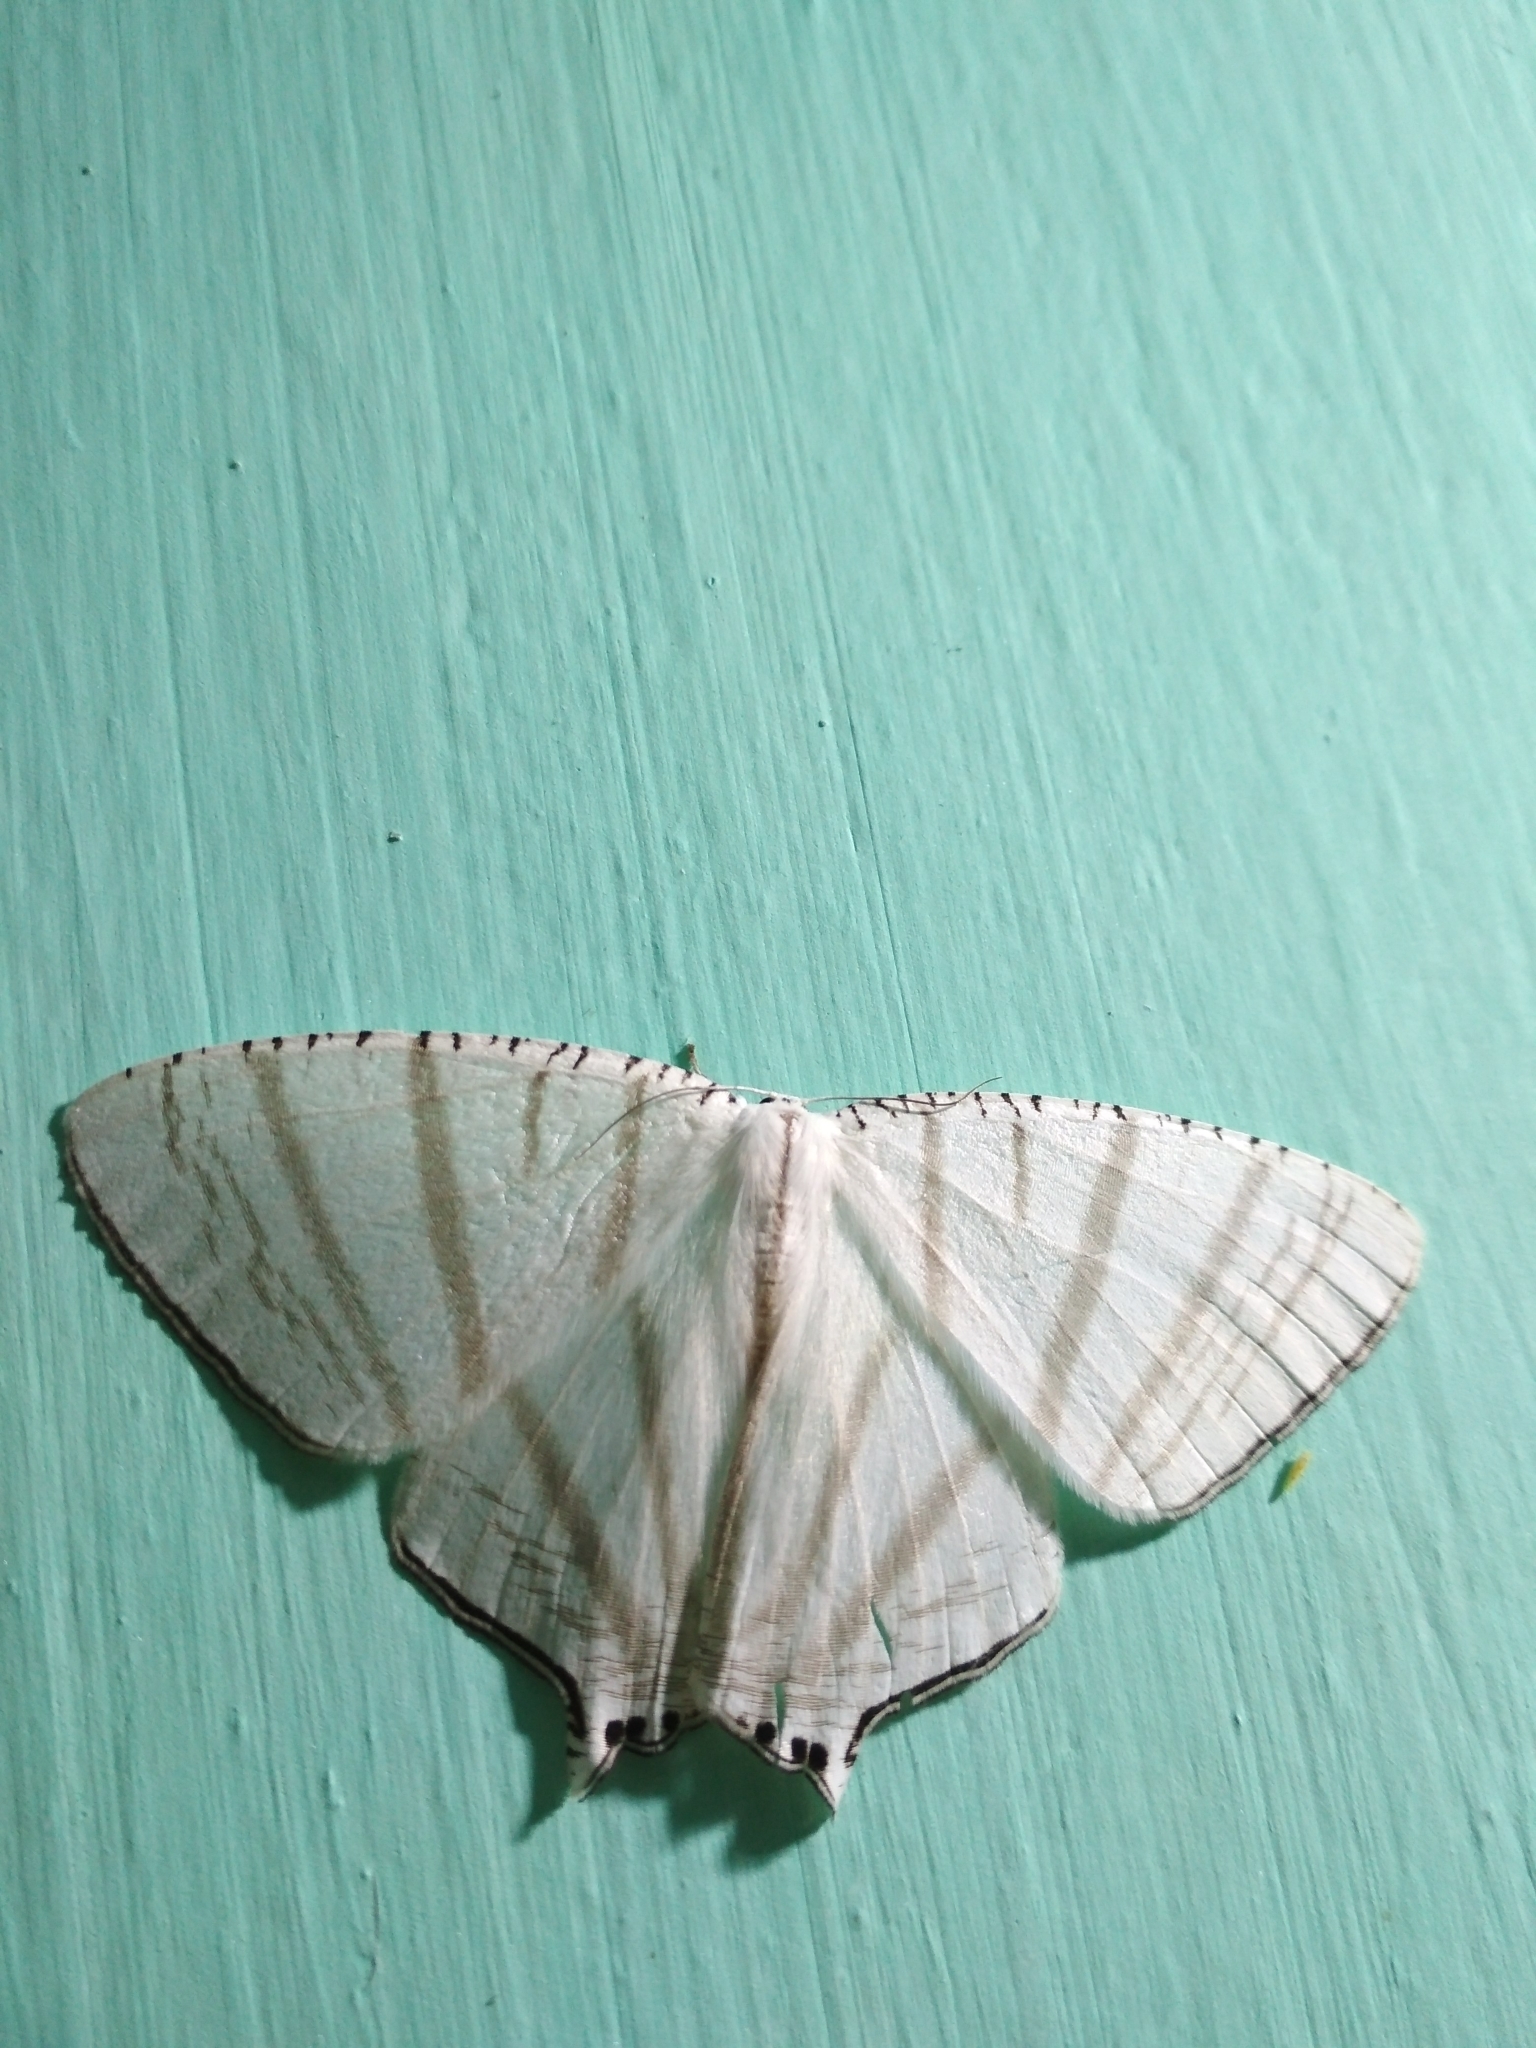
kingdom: Animalia
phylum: Arthropoda
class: Insecta
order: Lepidoptera
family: Uraniidae
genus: Urapteroides
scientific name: Urapteroides astheniata
